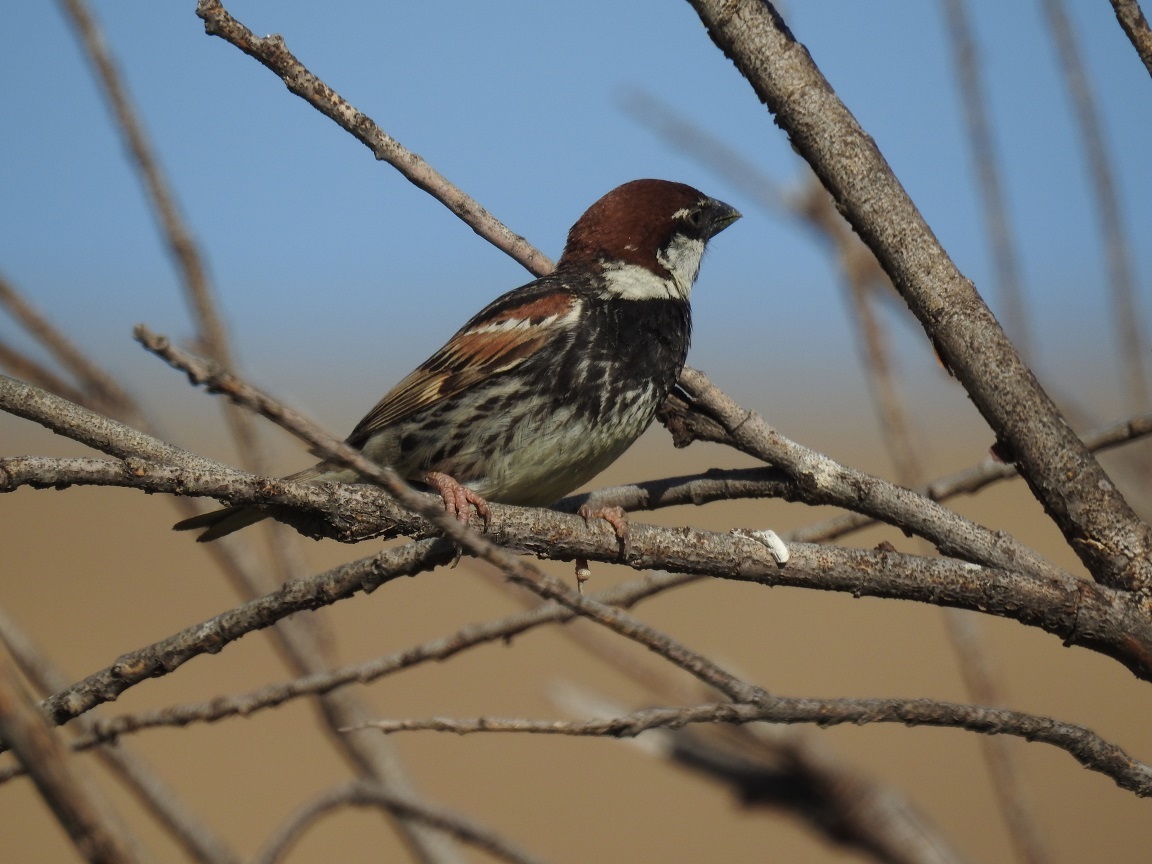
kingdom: Animalia
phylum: Chordata
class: Aves
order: Passeriformes
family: Passeridae
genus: Passer
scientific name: Passer hispaniolensis
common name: Spanish sparrow
